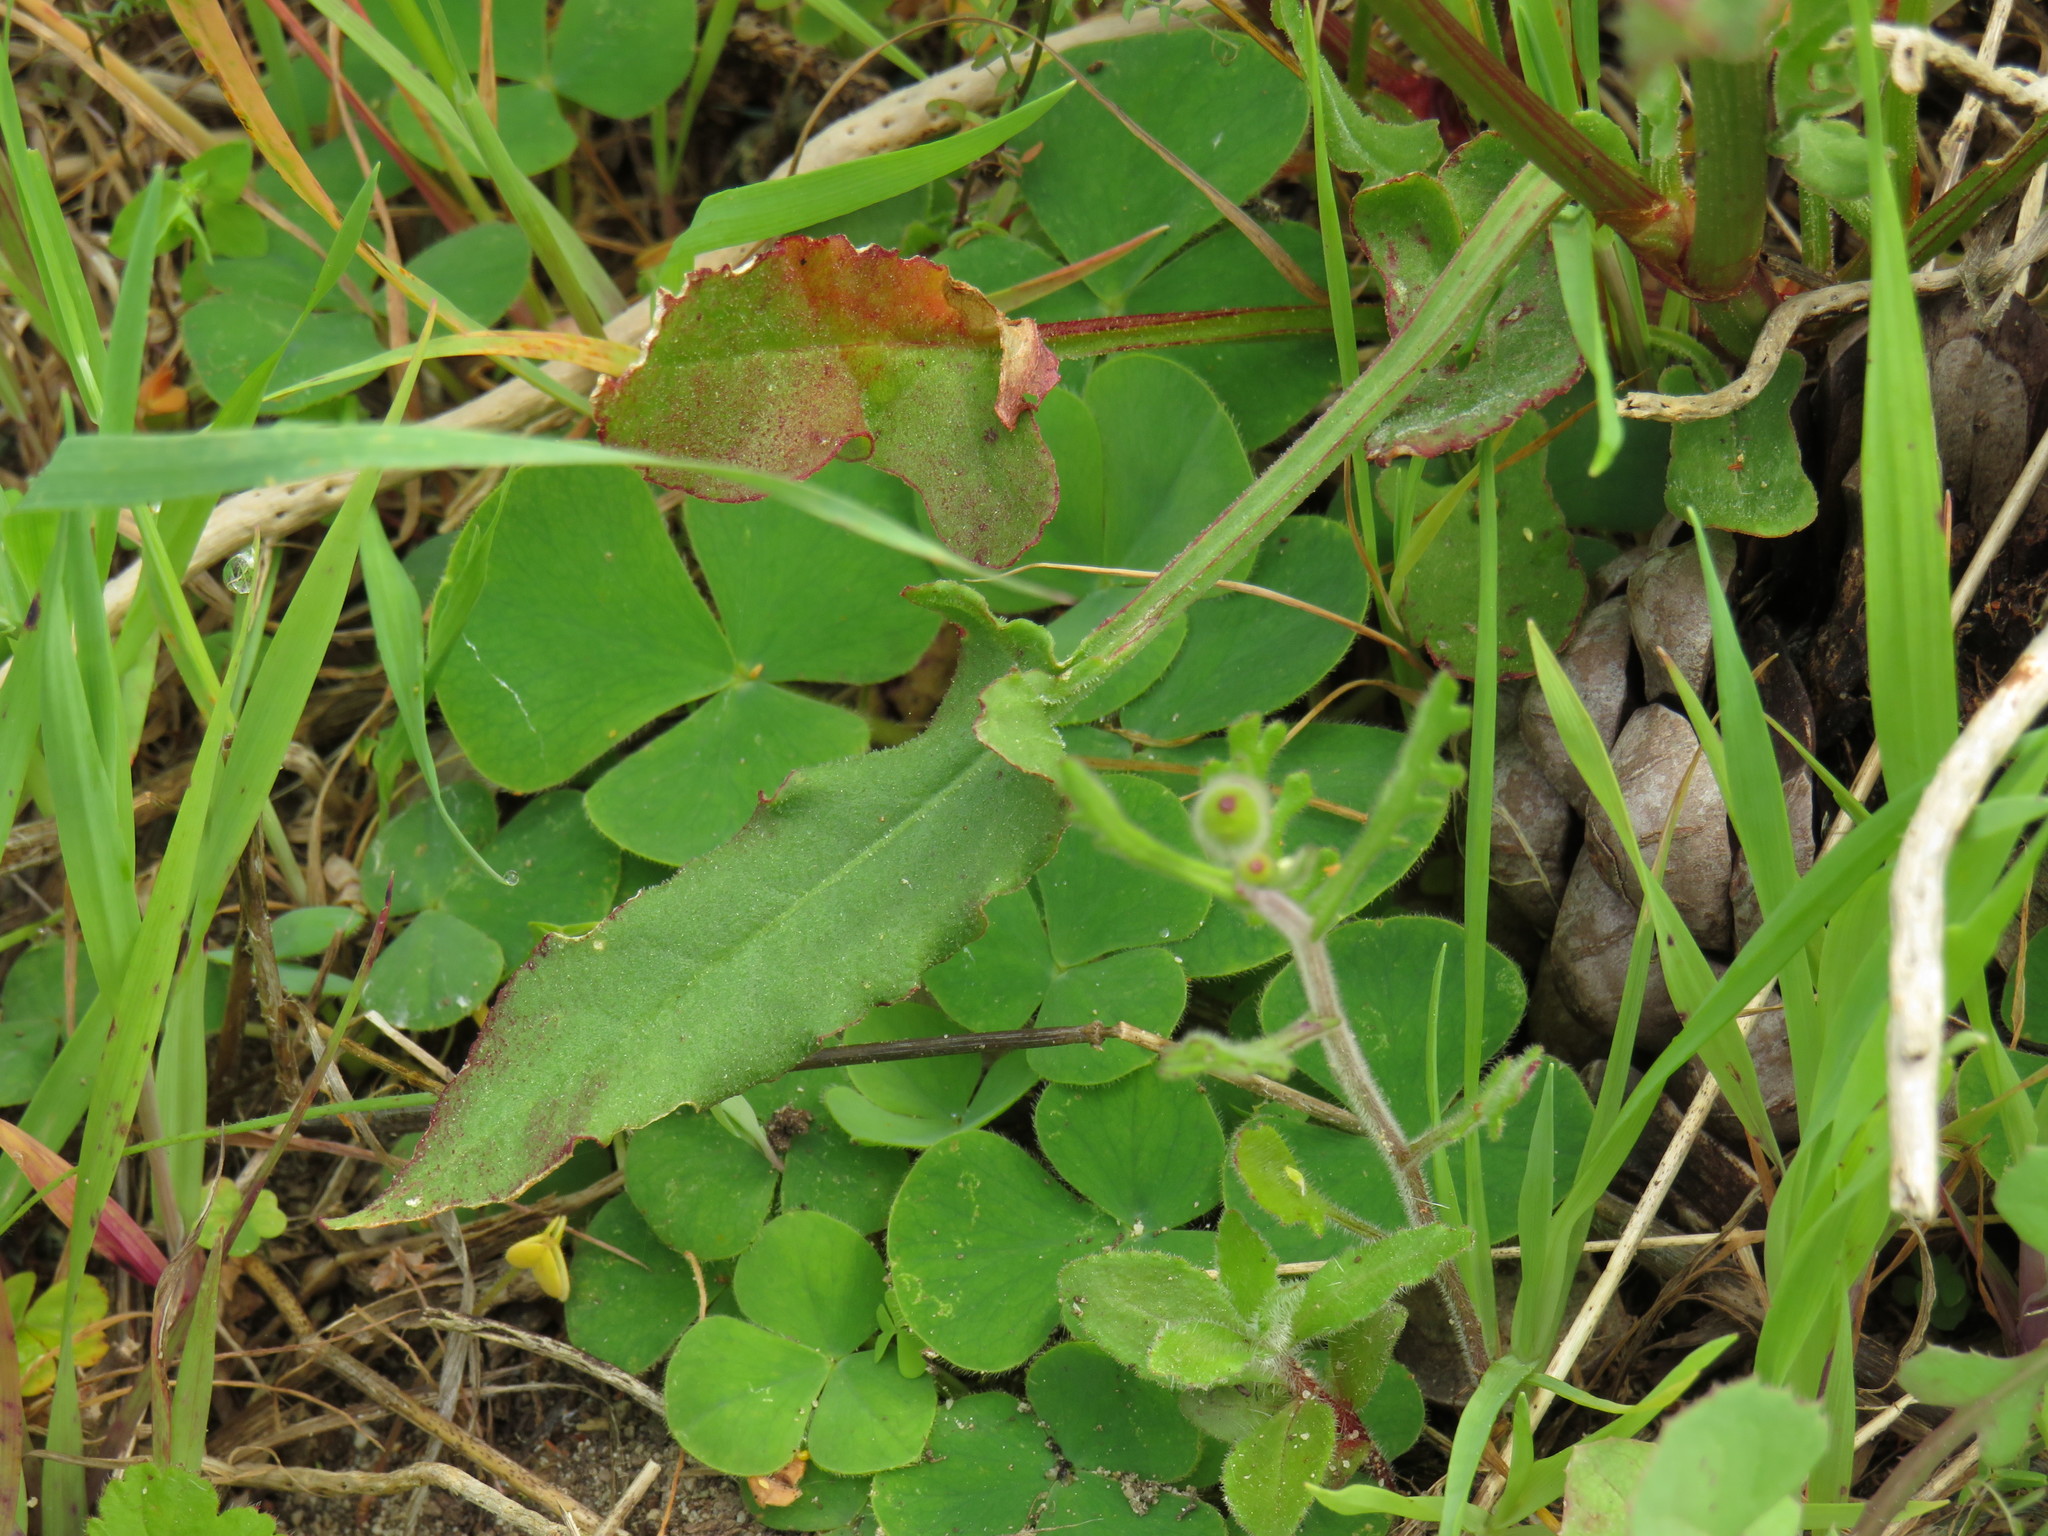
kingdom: Plantae
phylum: Tracheophyta
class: Magnoliopsida
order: Caryophyllales
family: Polygonaceae
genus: Rumex
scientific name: Rumex cordatus
